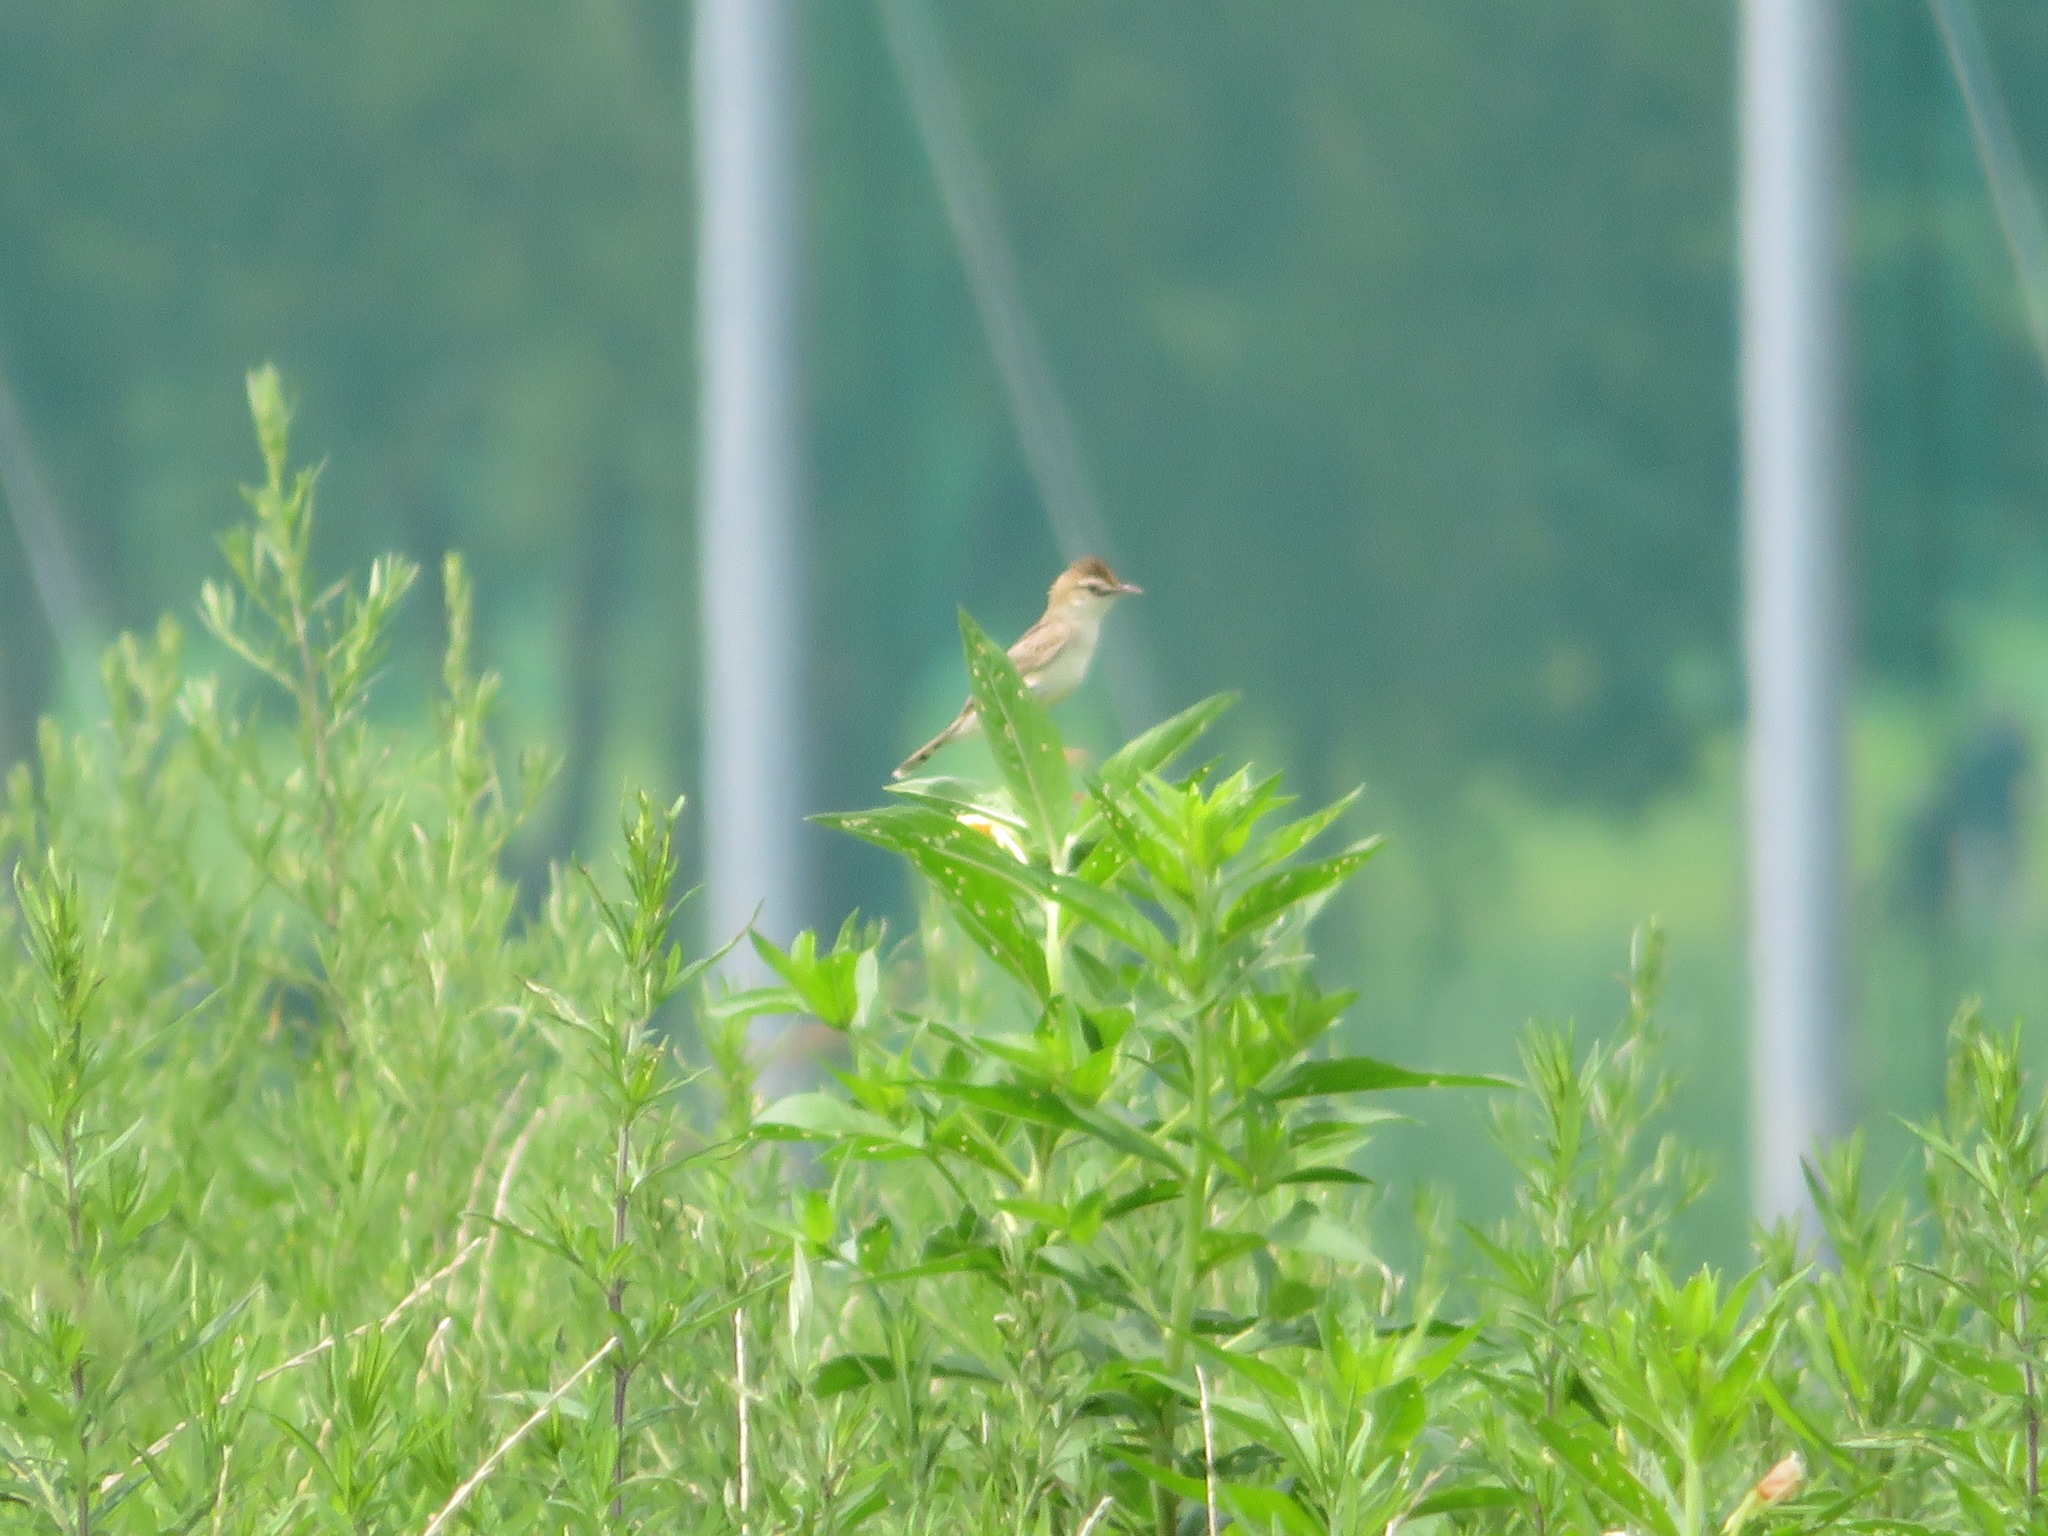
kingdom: Animalia
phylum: Chordata
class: Aves
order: Passeriformes
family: Cisticolidae
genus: Cisticola
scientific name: Cisticola juncidis
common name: Zitting cisticola
